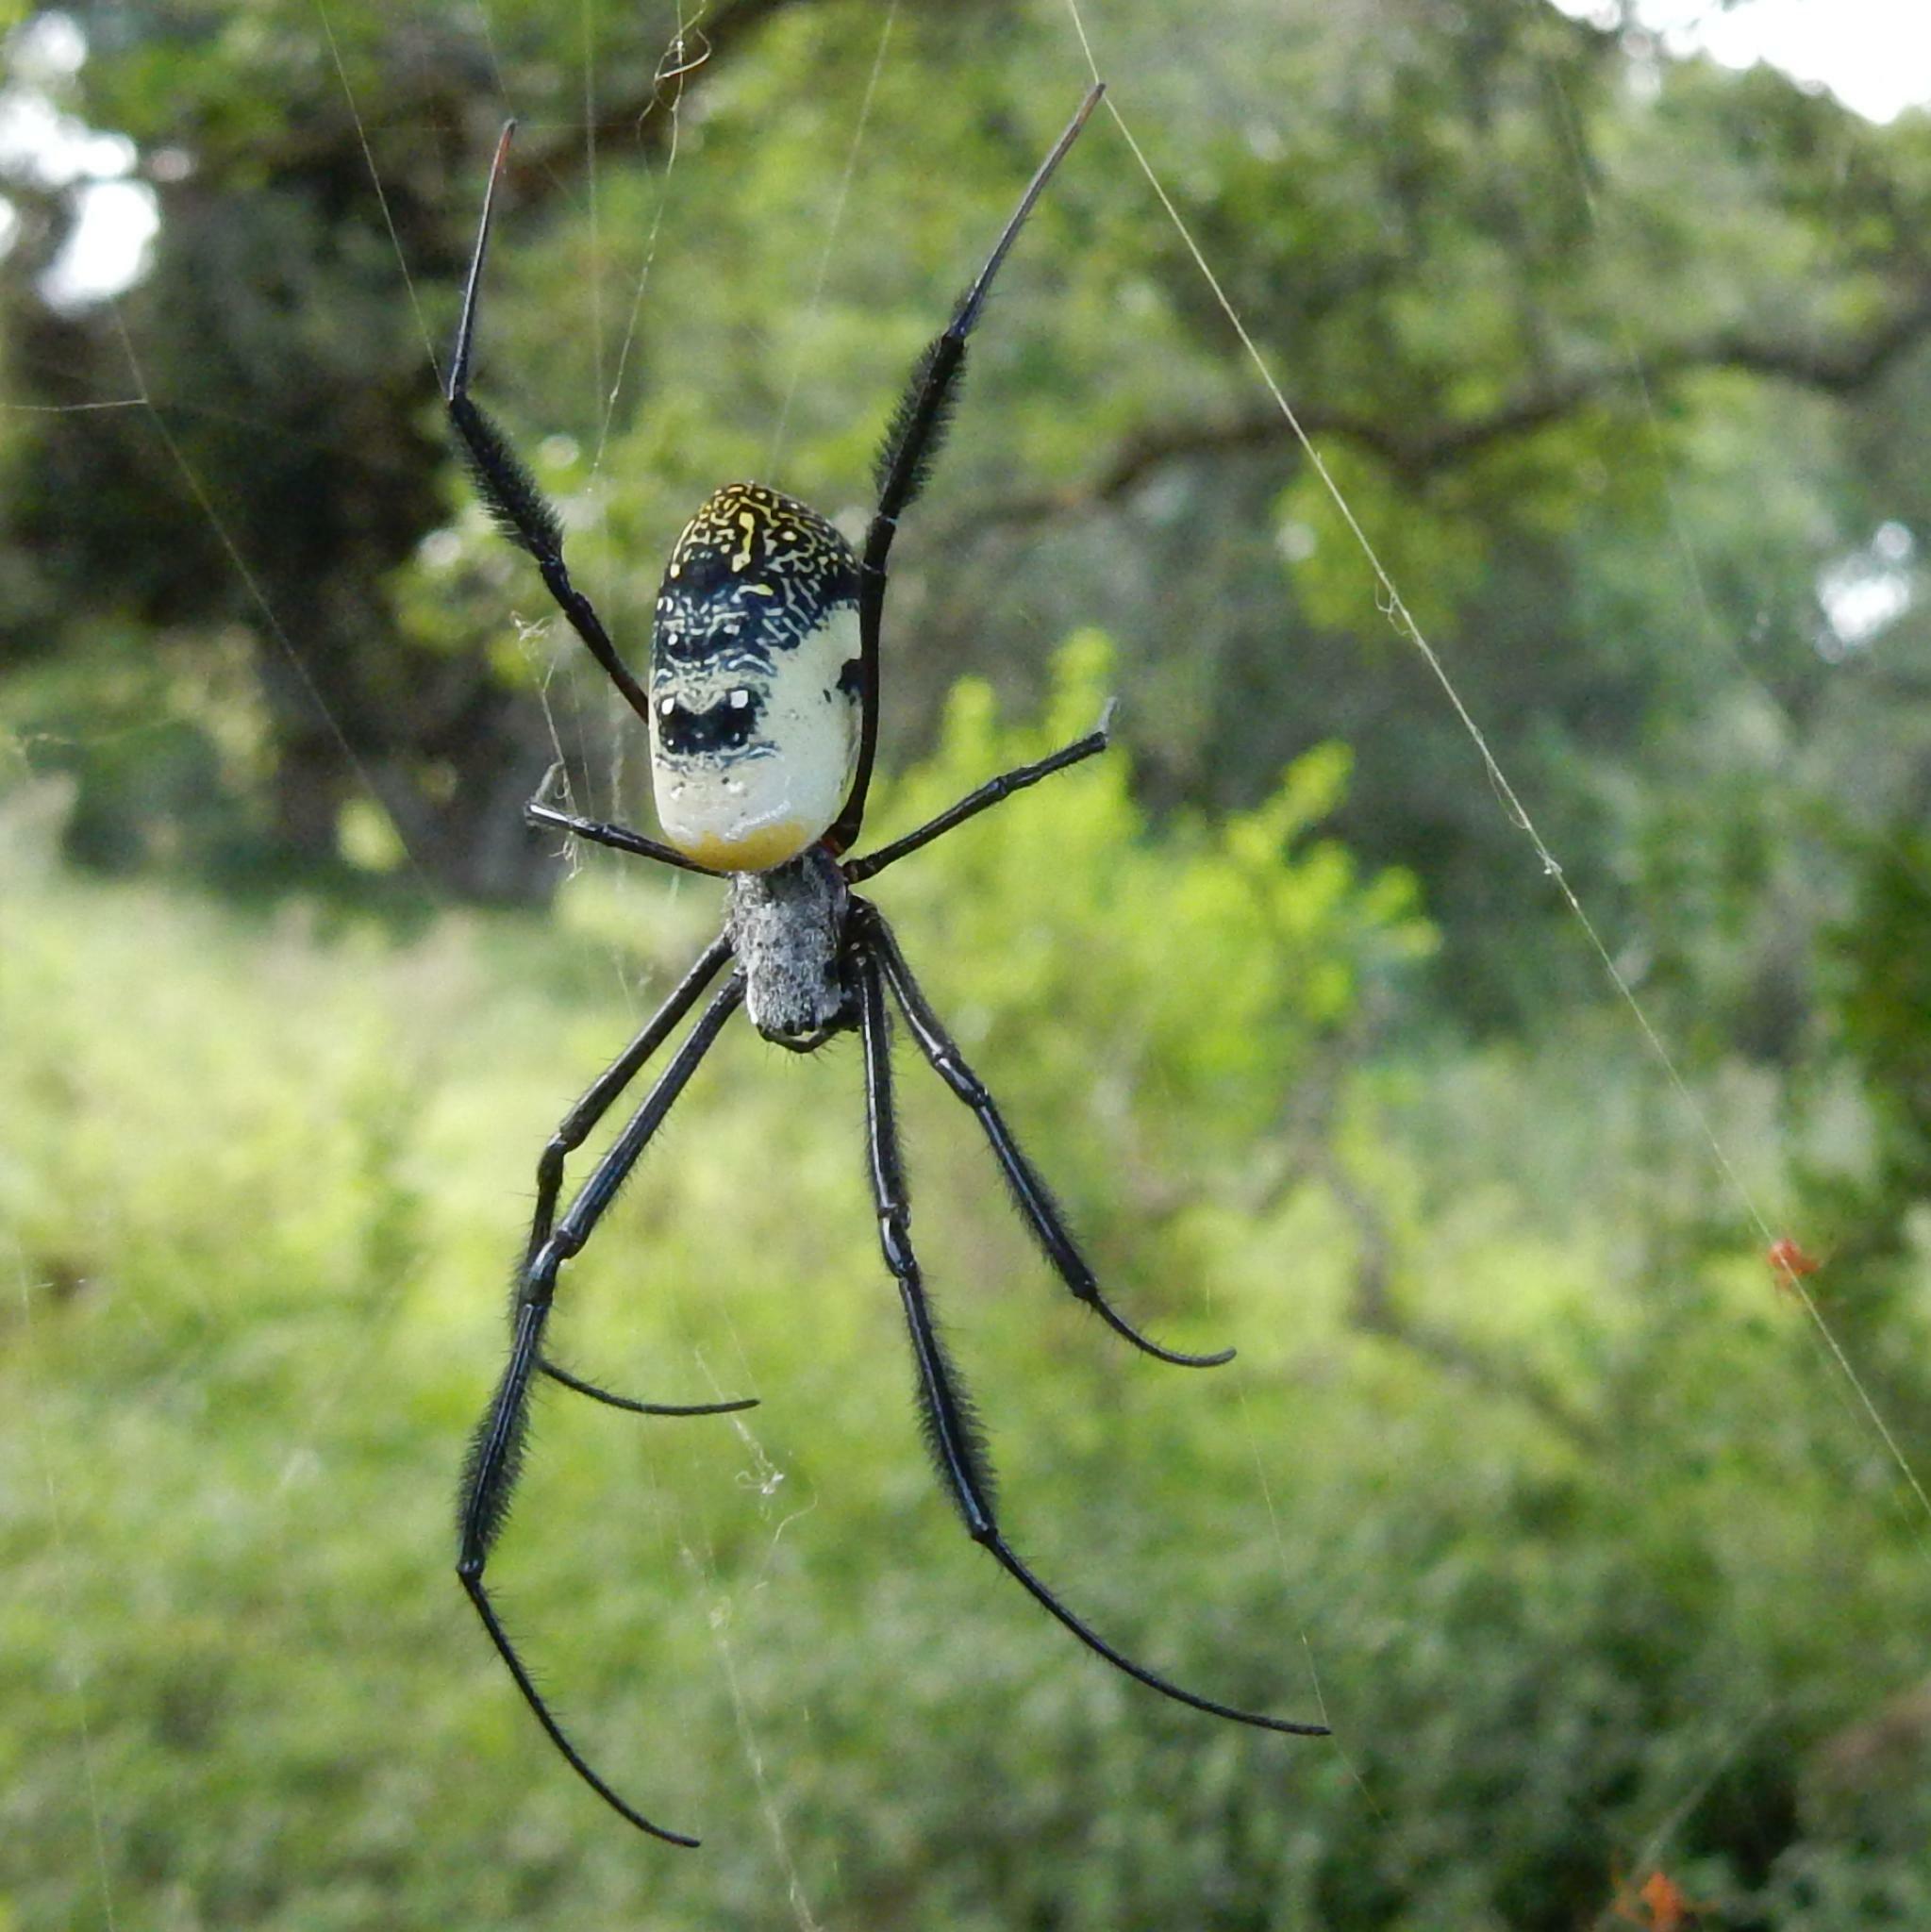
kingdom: Animalia
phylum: Arthropoda
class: Arachnida
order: Araneae
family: Araneidae
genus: Trichonephila
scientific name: Trichonephila fenestrata
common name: Hairy golden orb weaver
